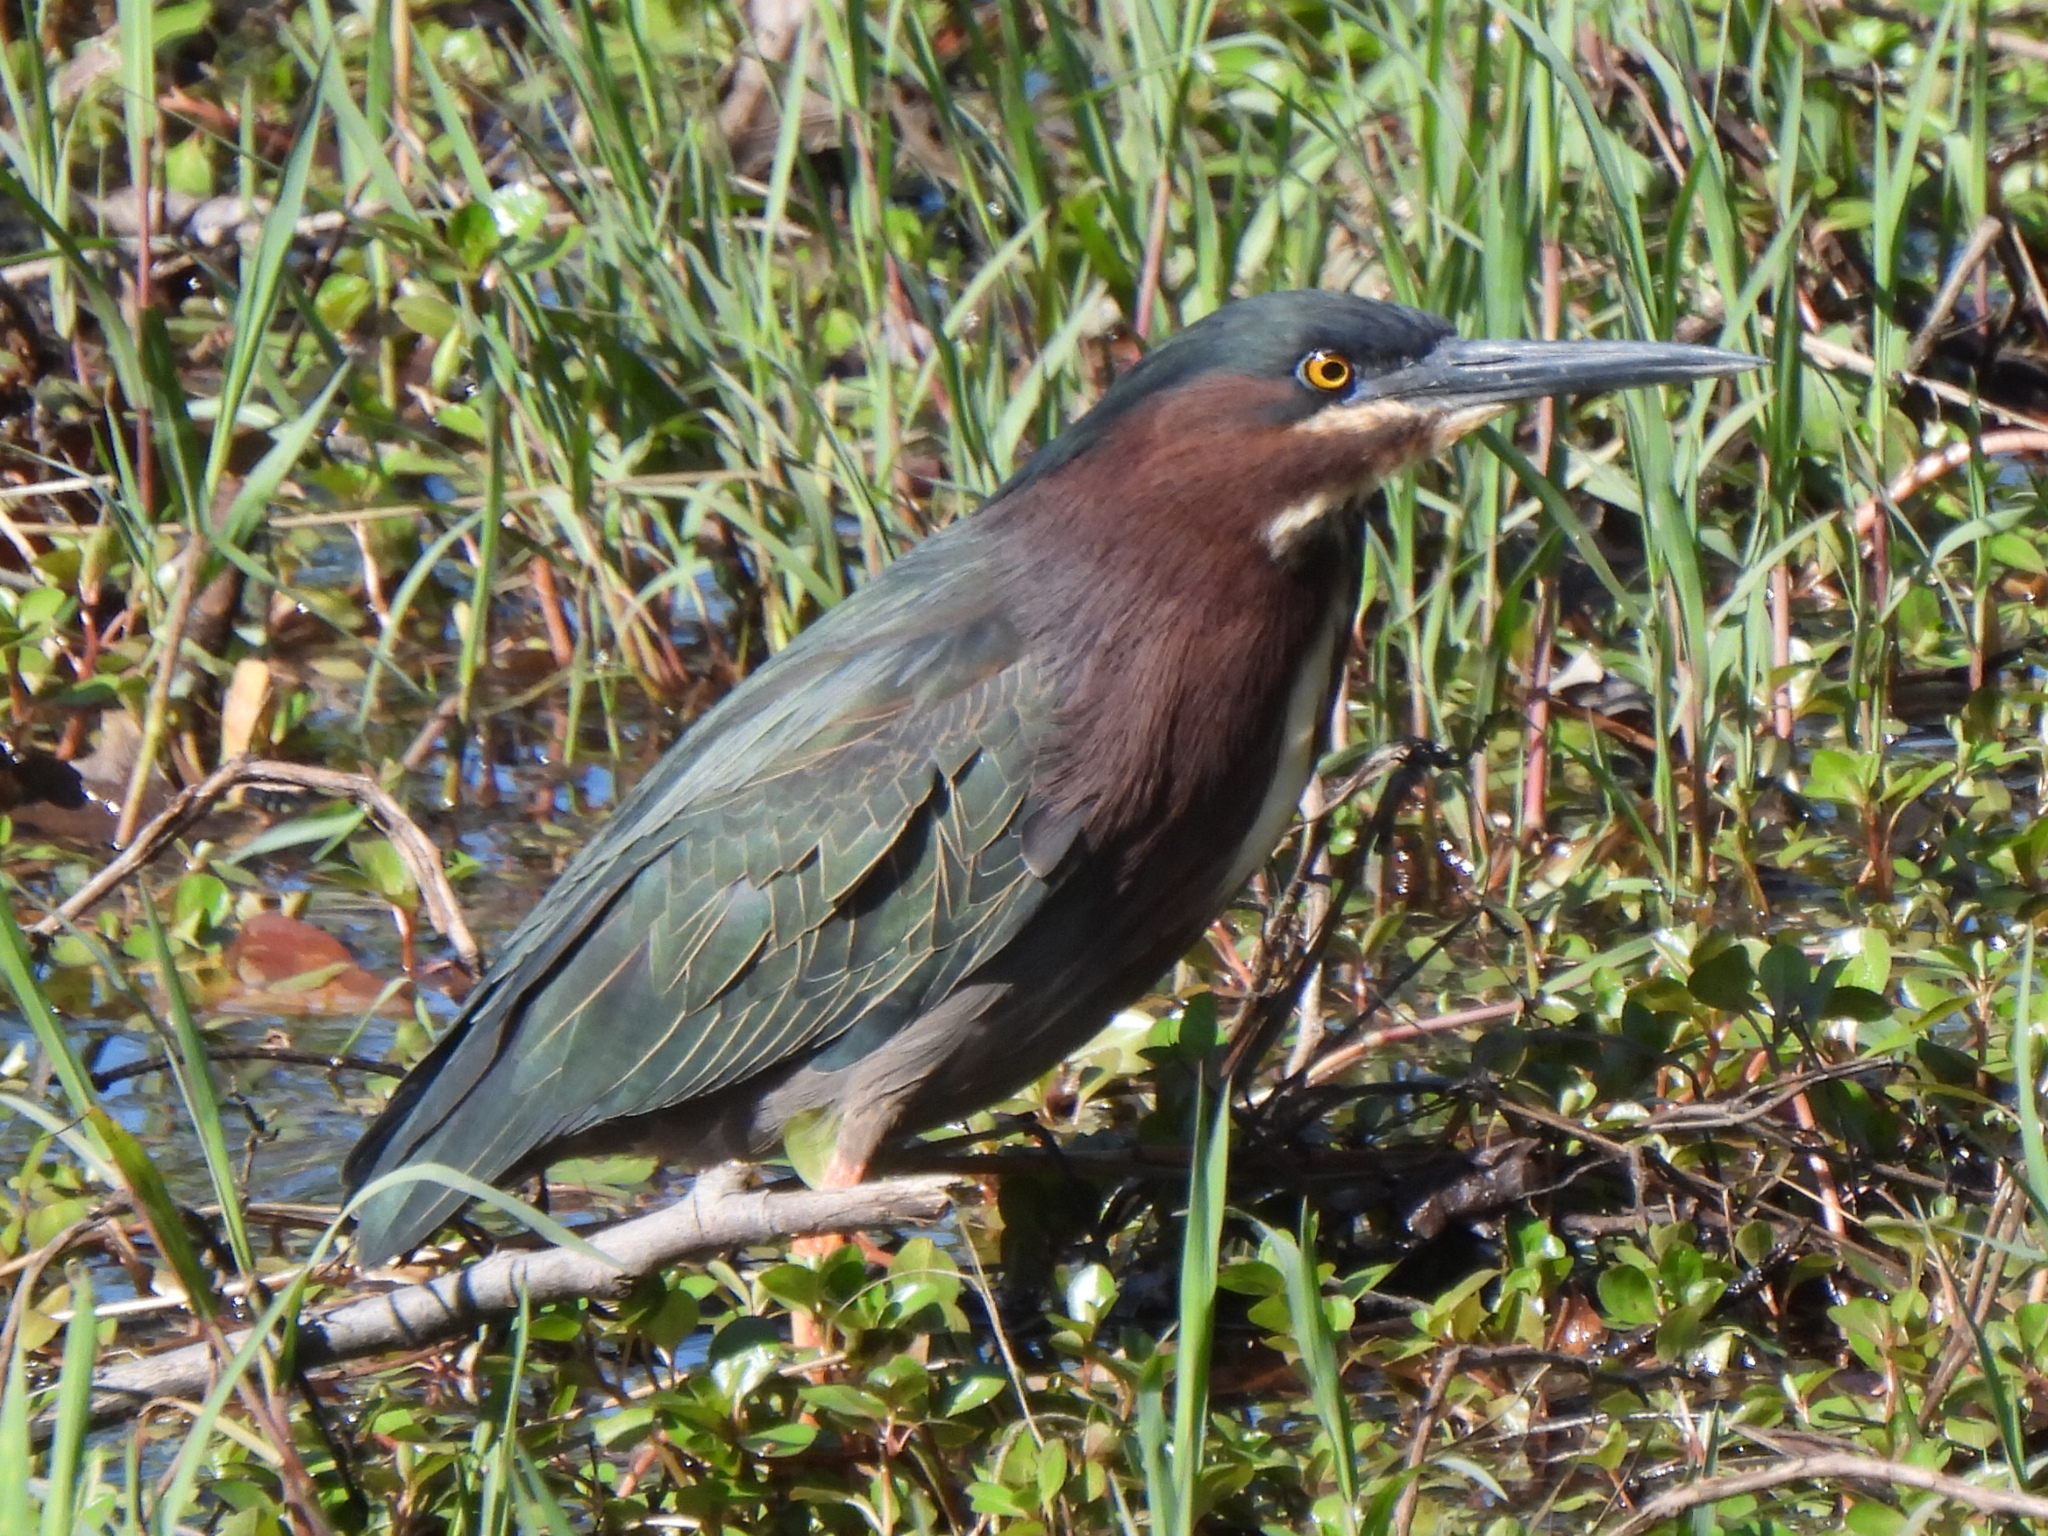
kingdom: Animalia
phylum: Chordata
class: Aves
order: Pelecaniformes
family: Ardeidae
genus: Butorides
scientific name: Butorides virescens
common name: Green heron
